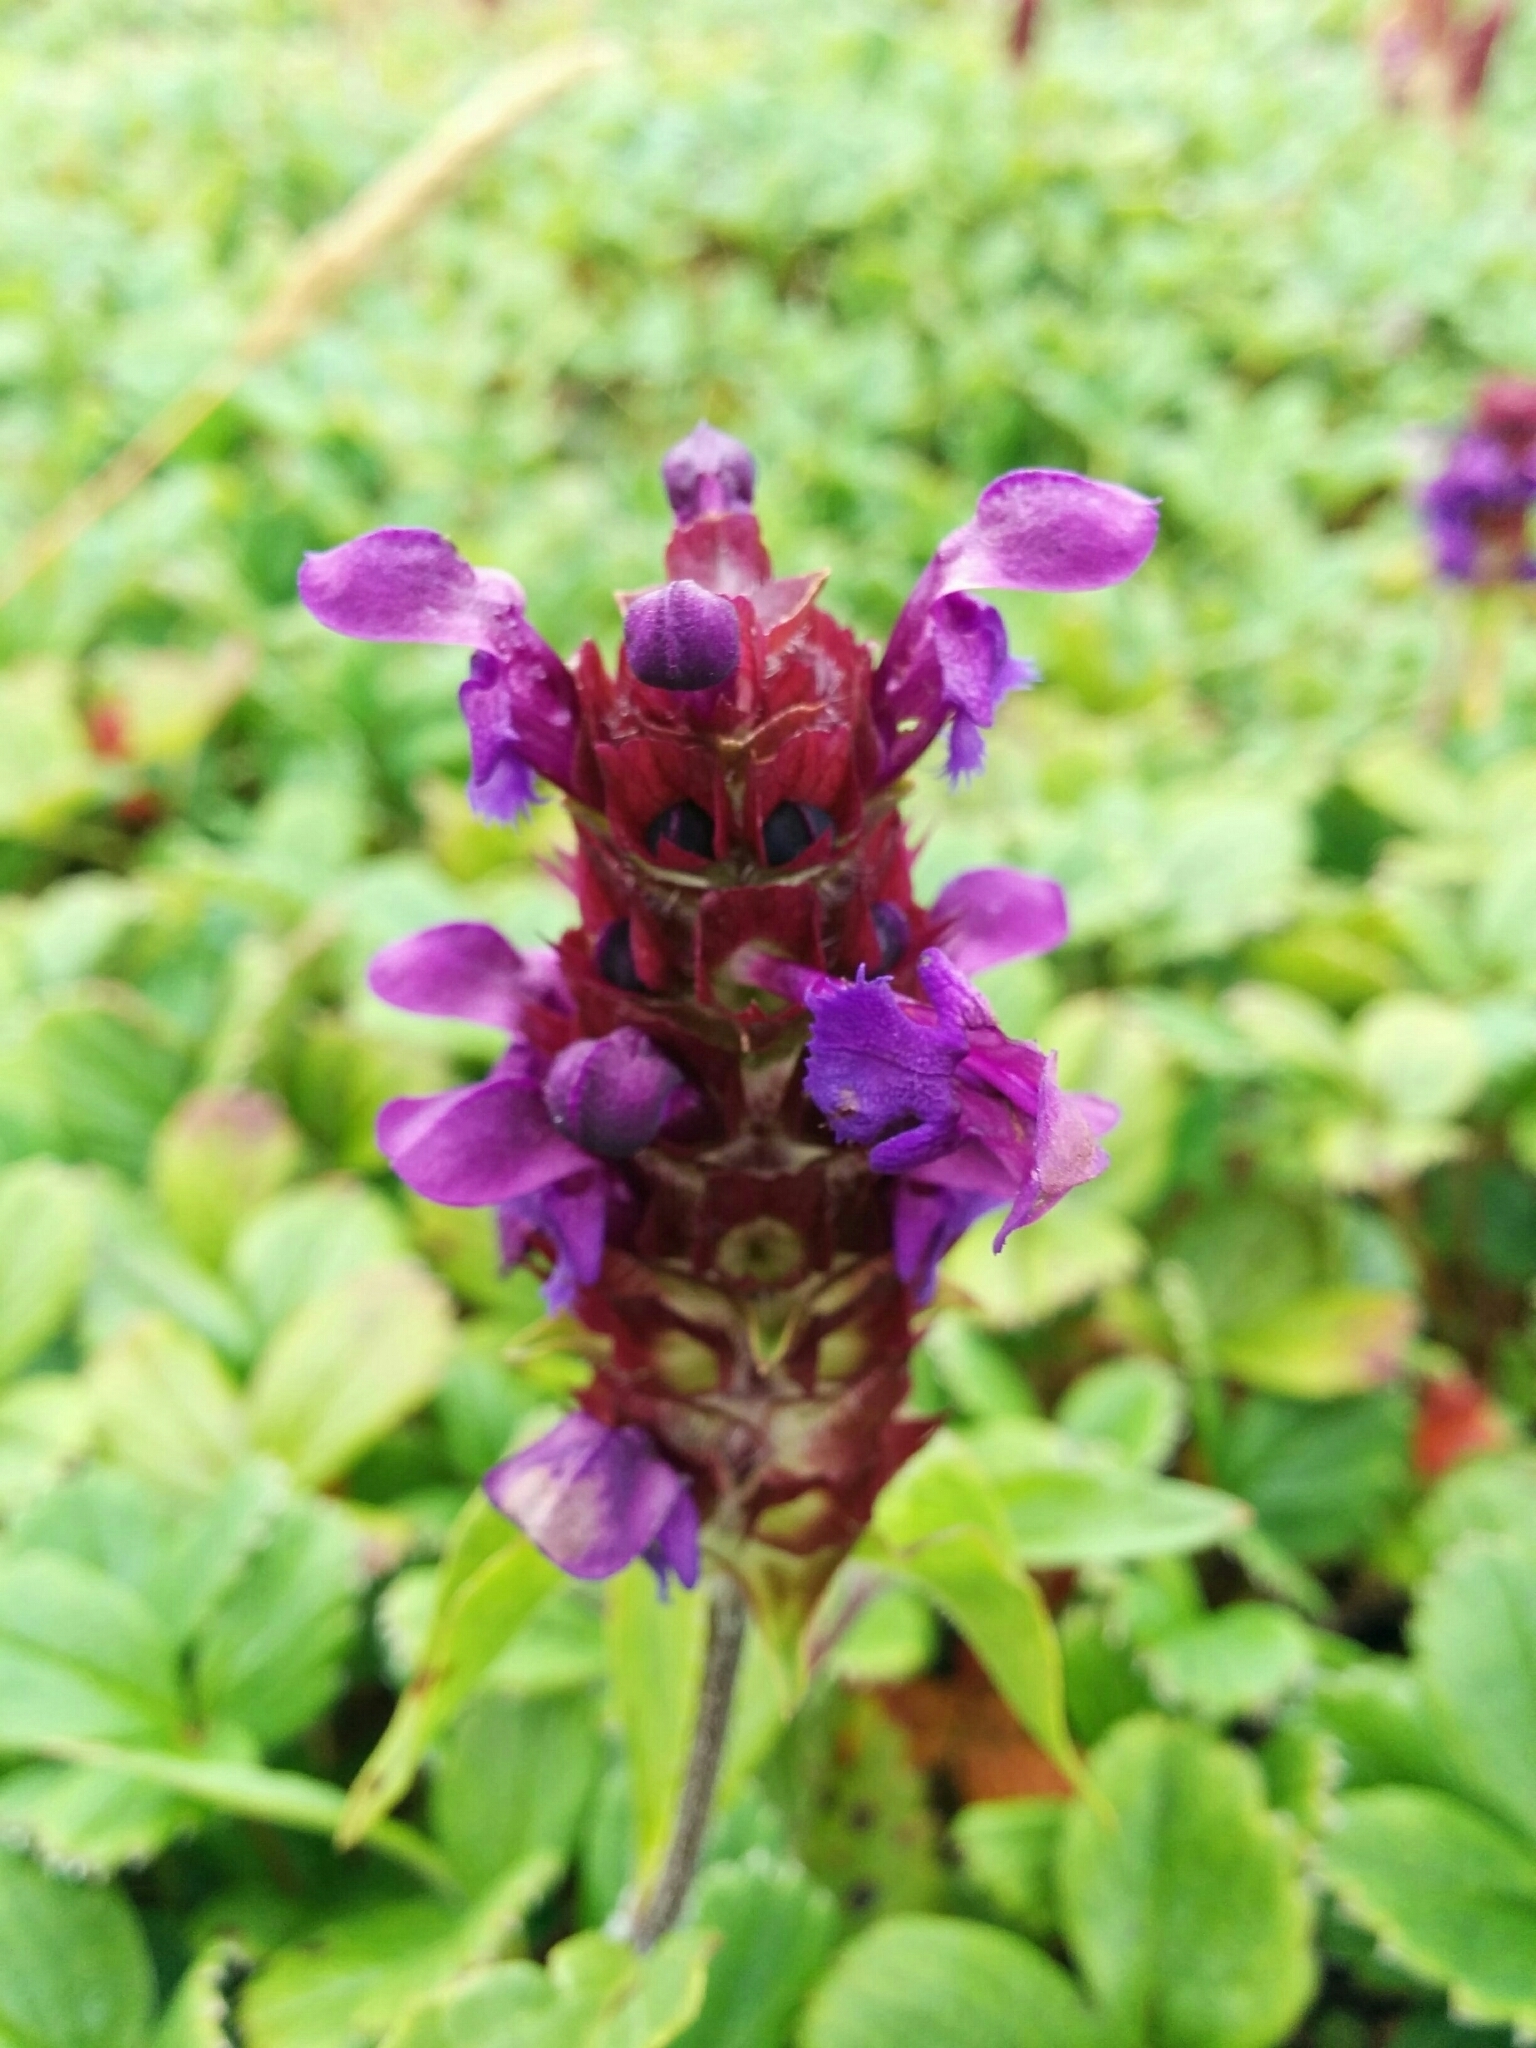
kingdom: Plantae
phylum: Tracheophyta
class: Magnoliopsida
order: Lamiales
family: Lamiaceae
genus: Prunella
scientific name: Prunella vulgaris
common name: Heal-all
